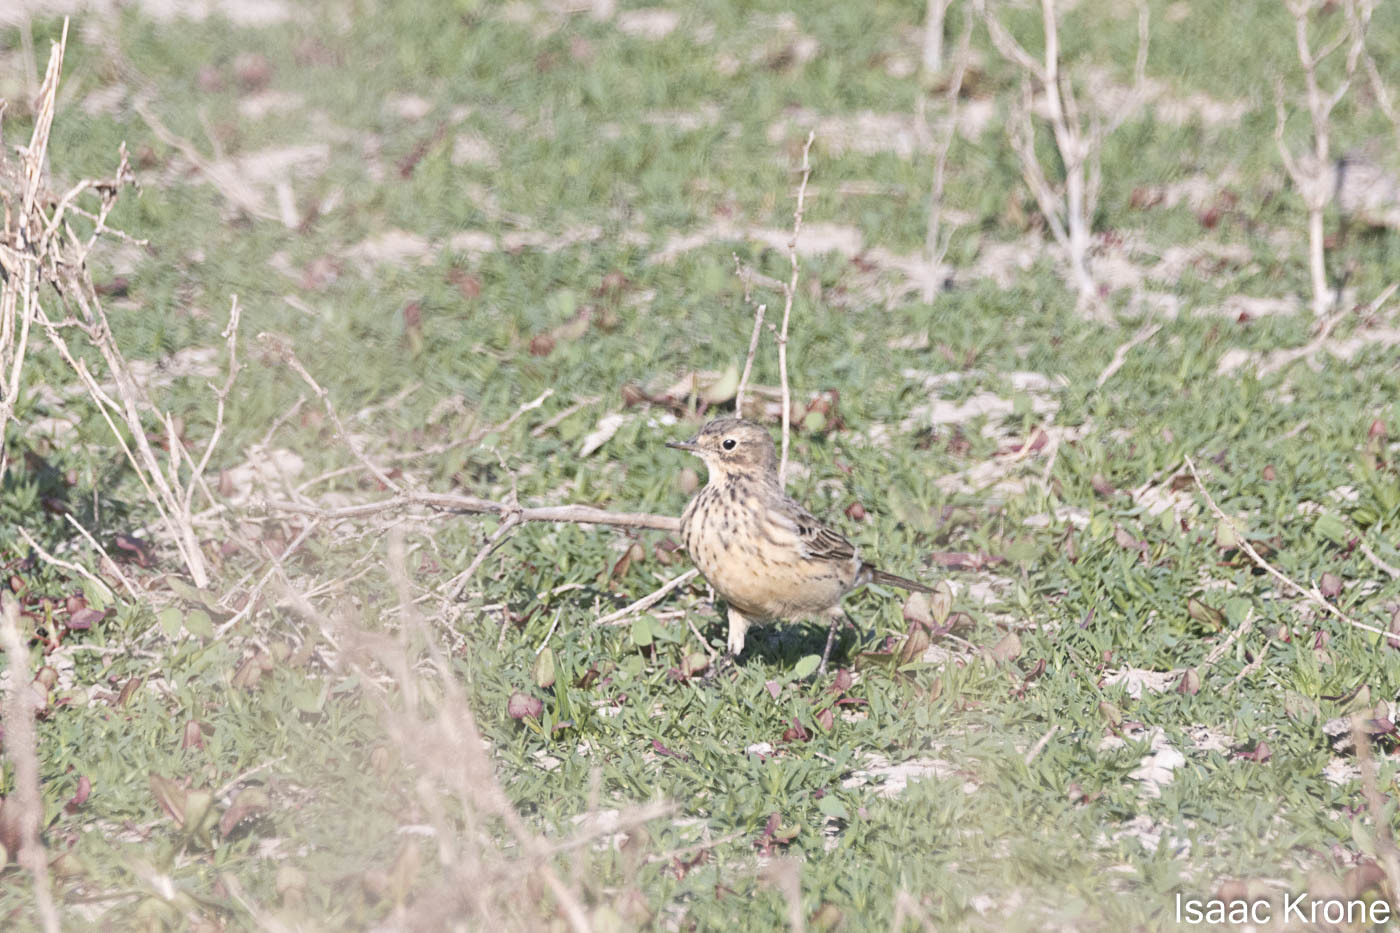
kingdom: Animalia
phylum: Chordata
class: Aves
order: Passeriformes
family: Motacillidae
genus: Anthus
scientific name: Anthus rubescens
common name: Buff-bellied pipit
